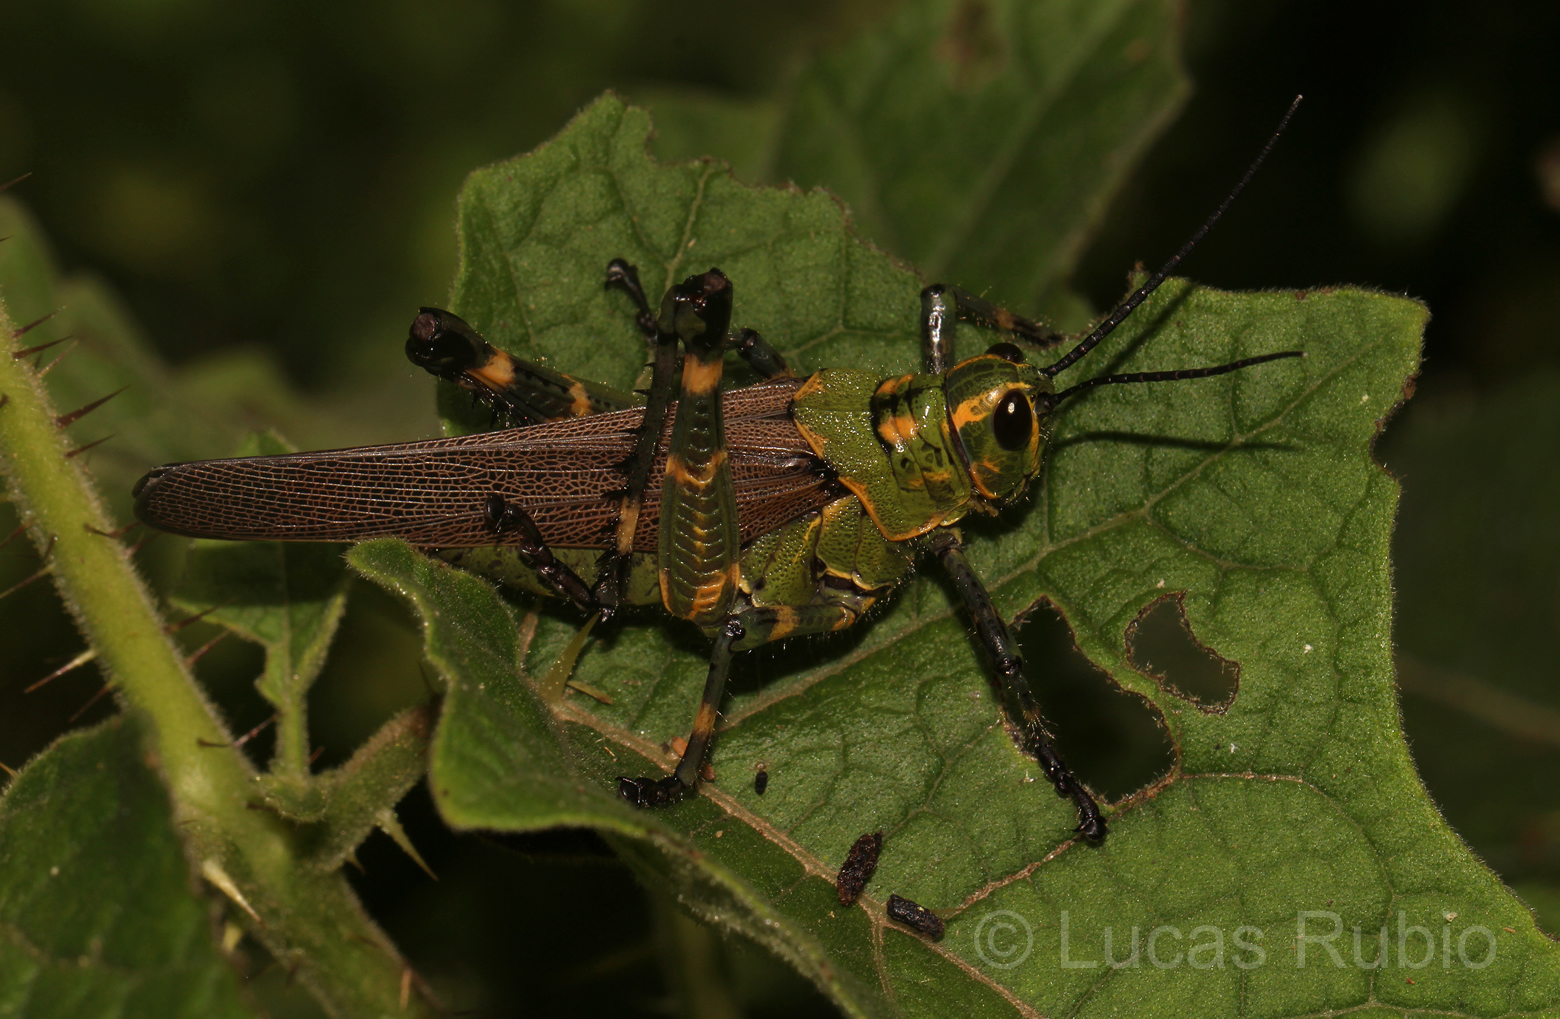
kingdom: Animalia
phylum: Arthropoda
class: Insecta
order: Orthoptera
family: Romaleidae
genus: Chromacris
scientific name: Chromacris speciosa
